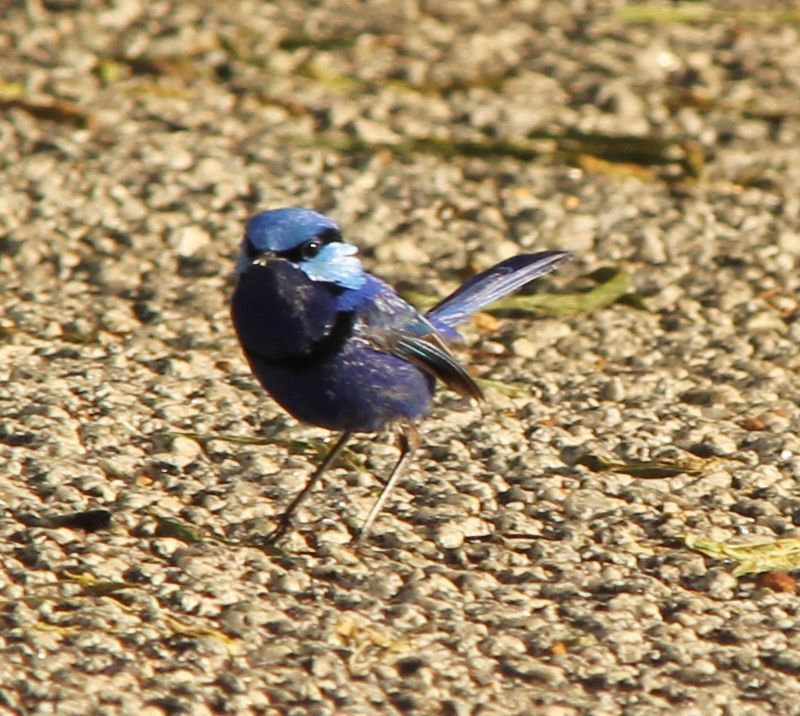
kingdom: Animalia
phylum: Chordata
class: Aves
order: Passeriformes
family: Maluridae
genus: Malurus
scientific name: Malurus splendens
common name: Splendid fairywren
